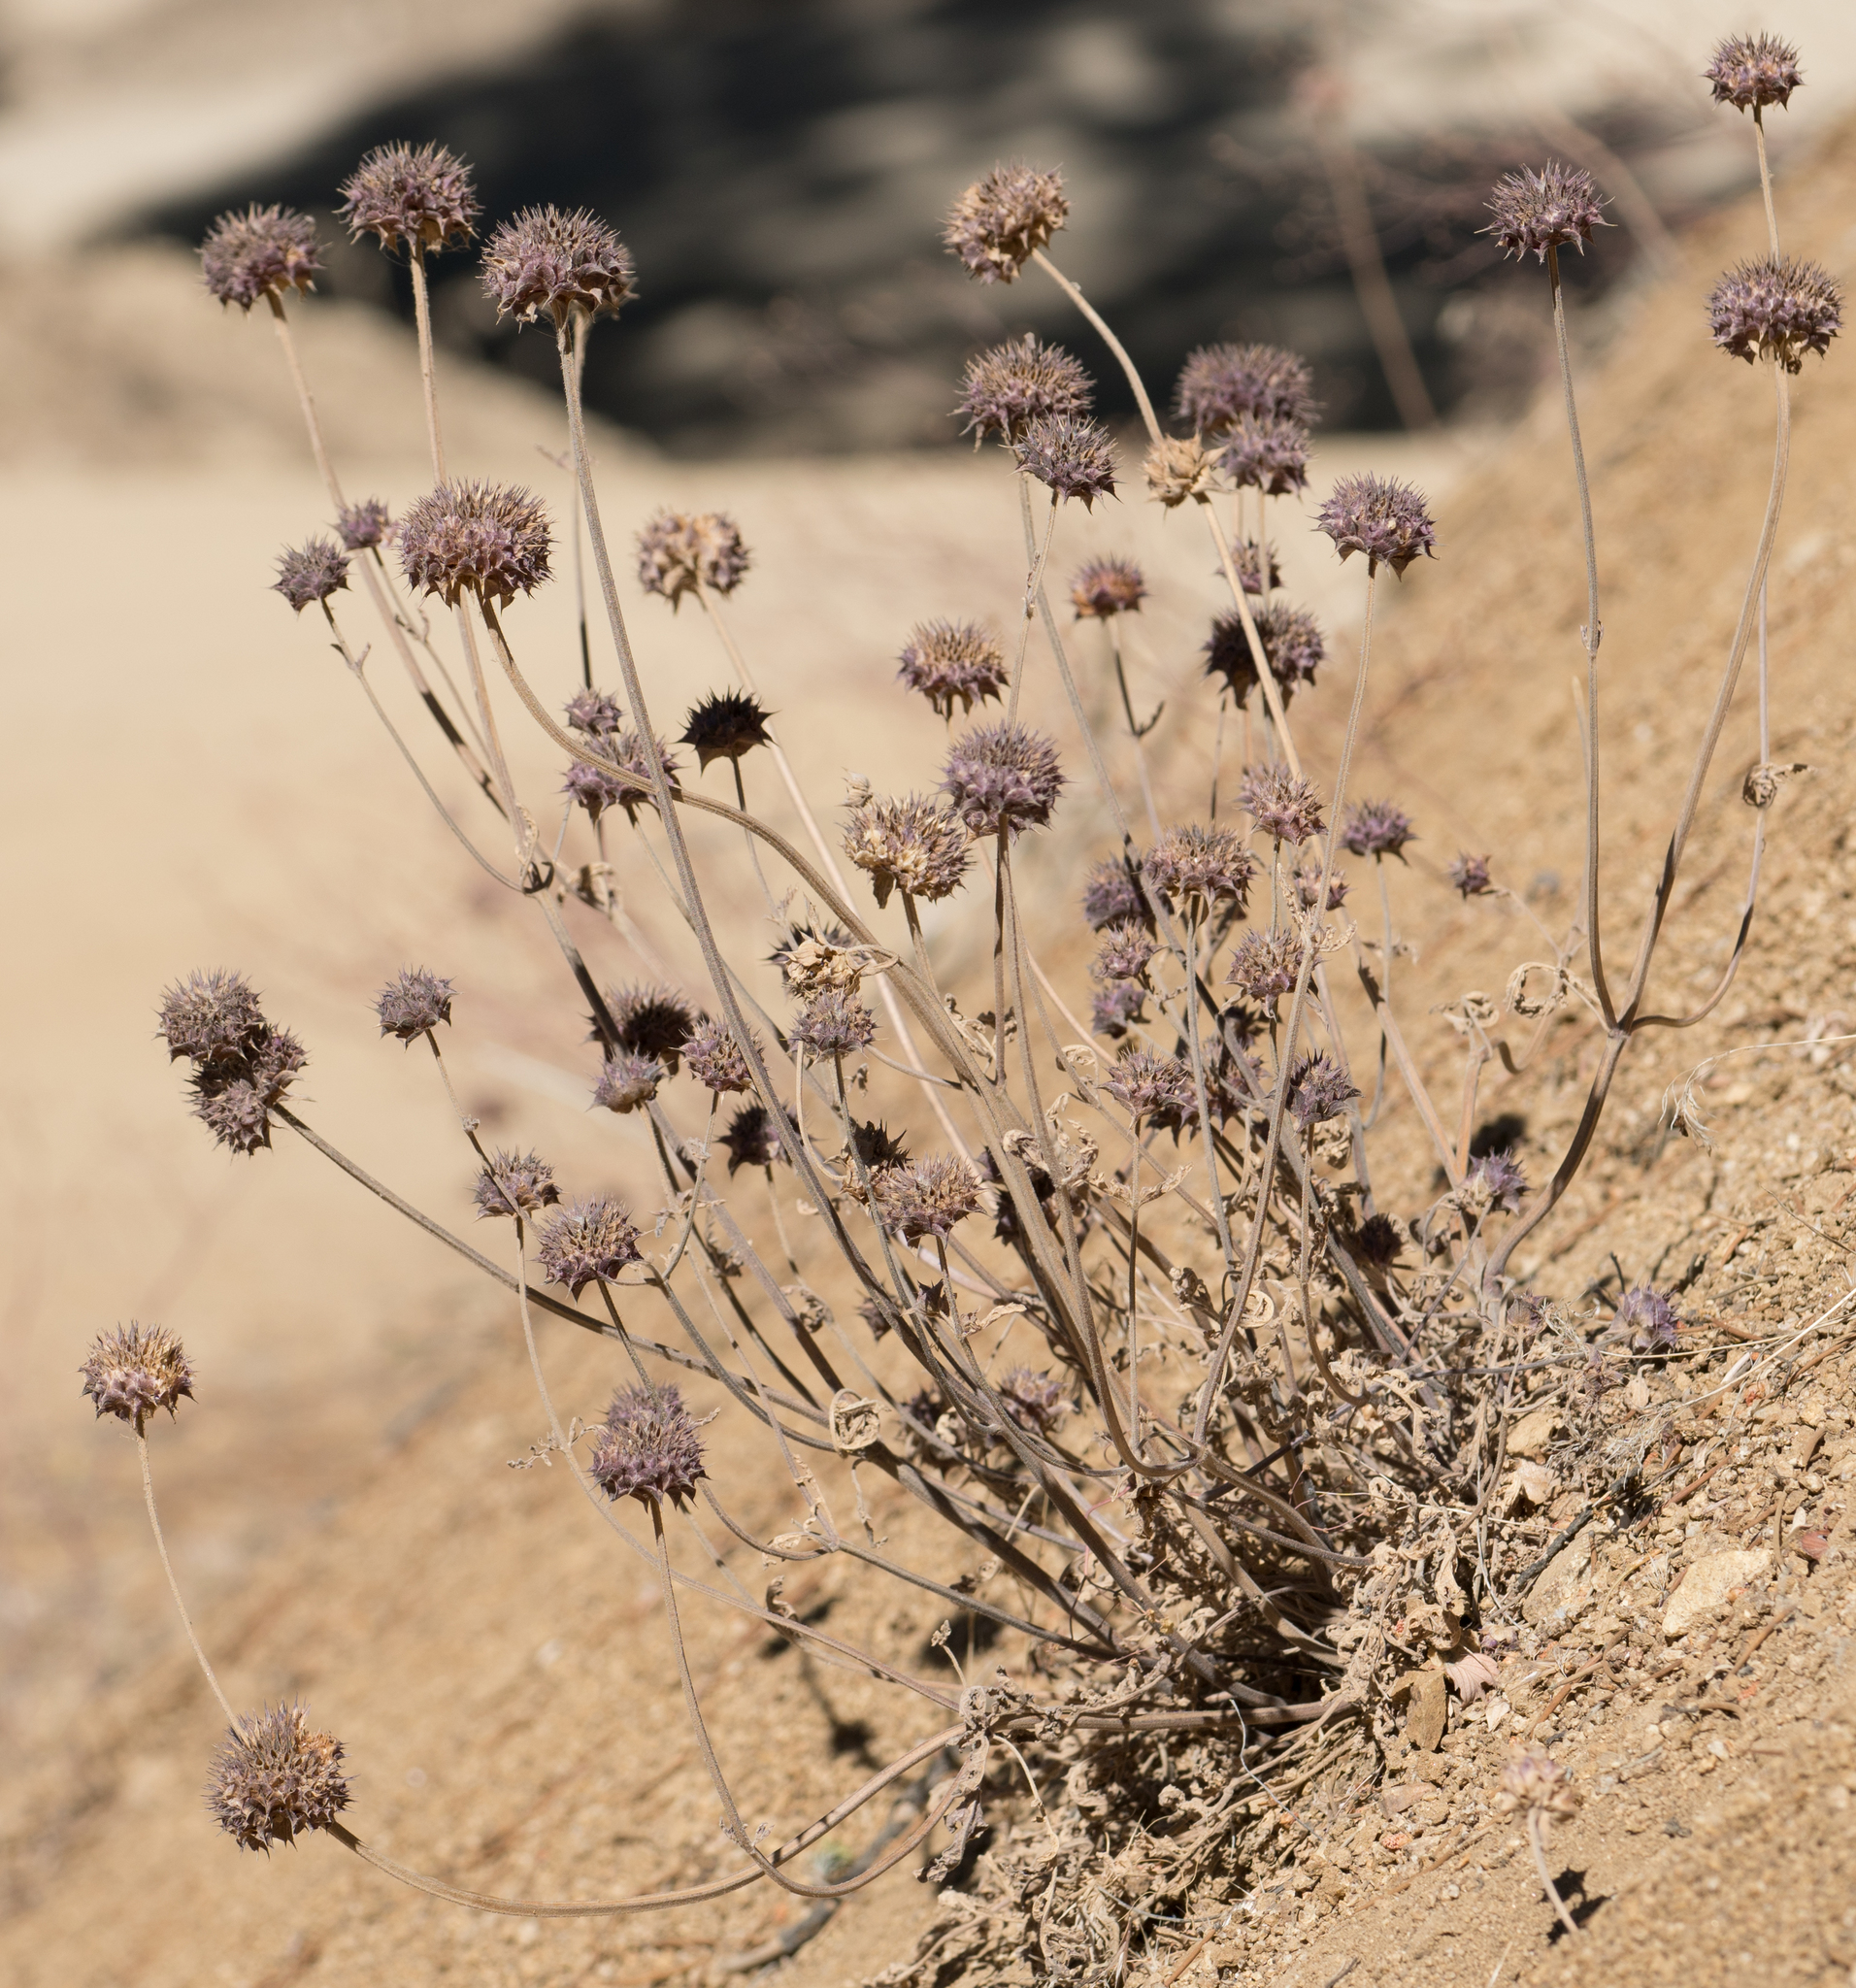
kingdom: Plantae
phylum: Tracheophyta
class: Magnoliopsida
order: Lamiales
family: Lamiaceae
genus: Salvia
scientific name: Salvia columbariae
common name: Chia
